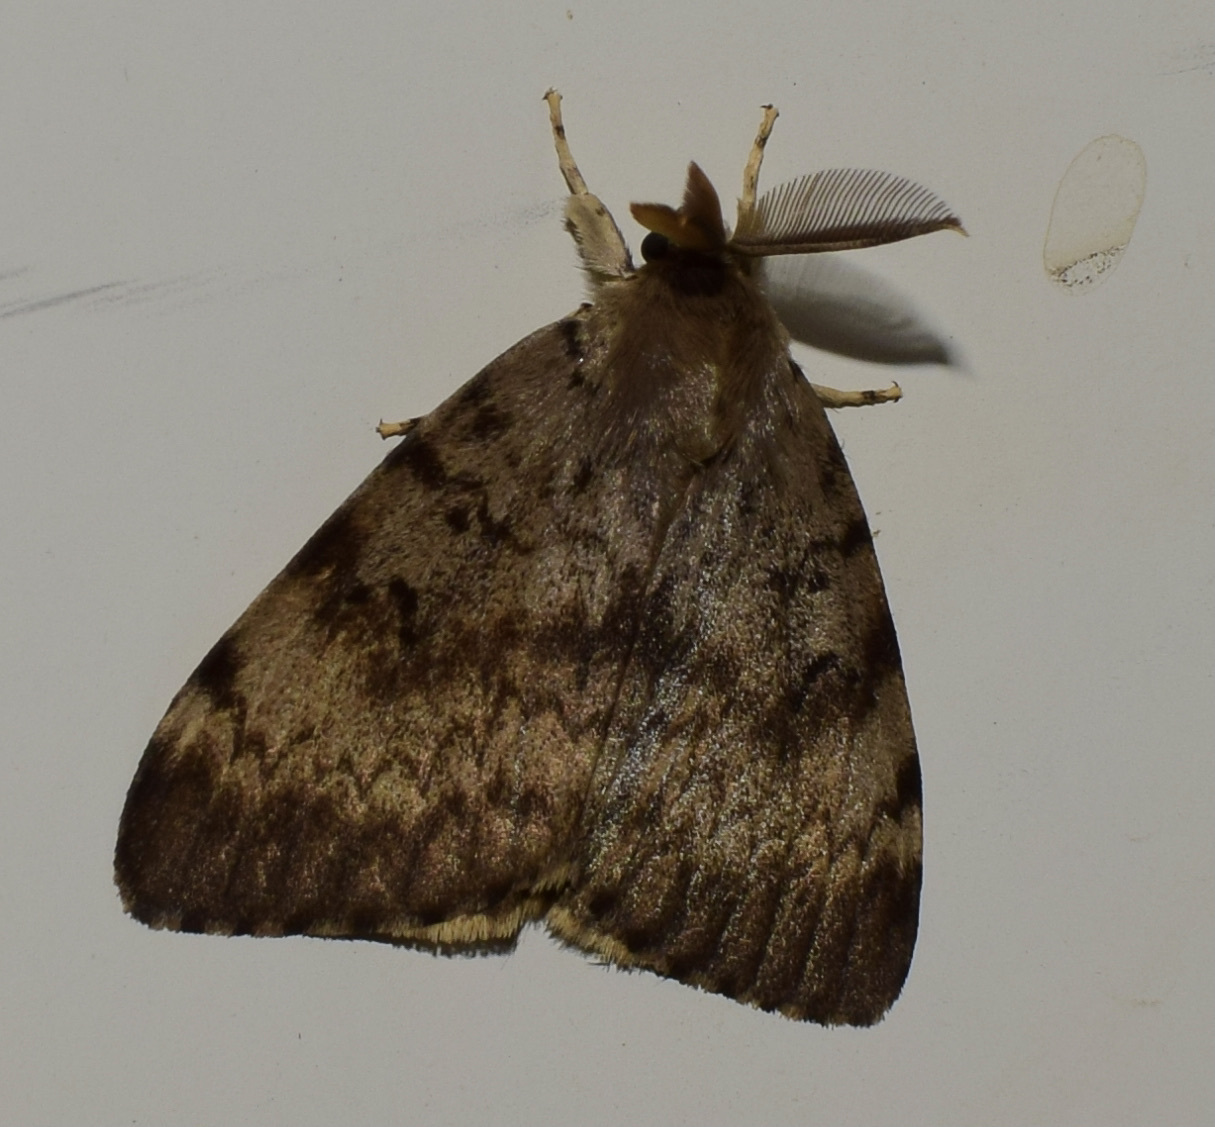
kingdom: Animalia
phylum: Arthropoda
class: Insecta
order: Lepidoptera
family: Erebidae
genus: Lymantria
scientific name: Lymantria dispar
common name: Gypsy moth
